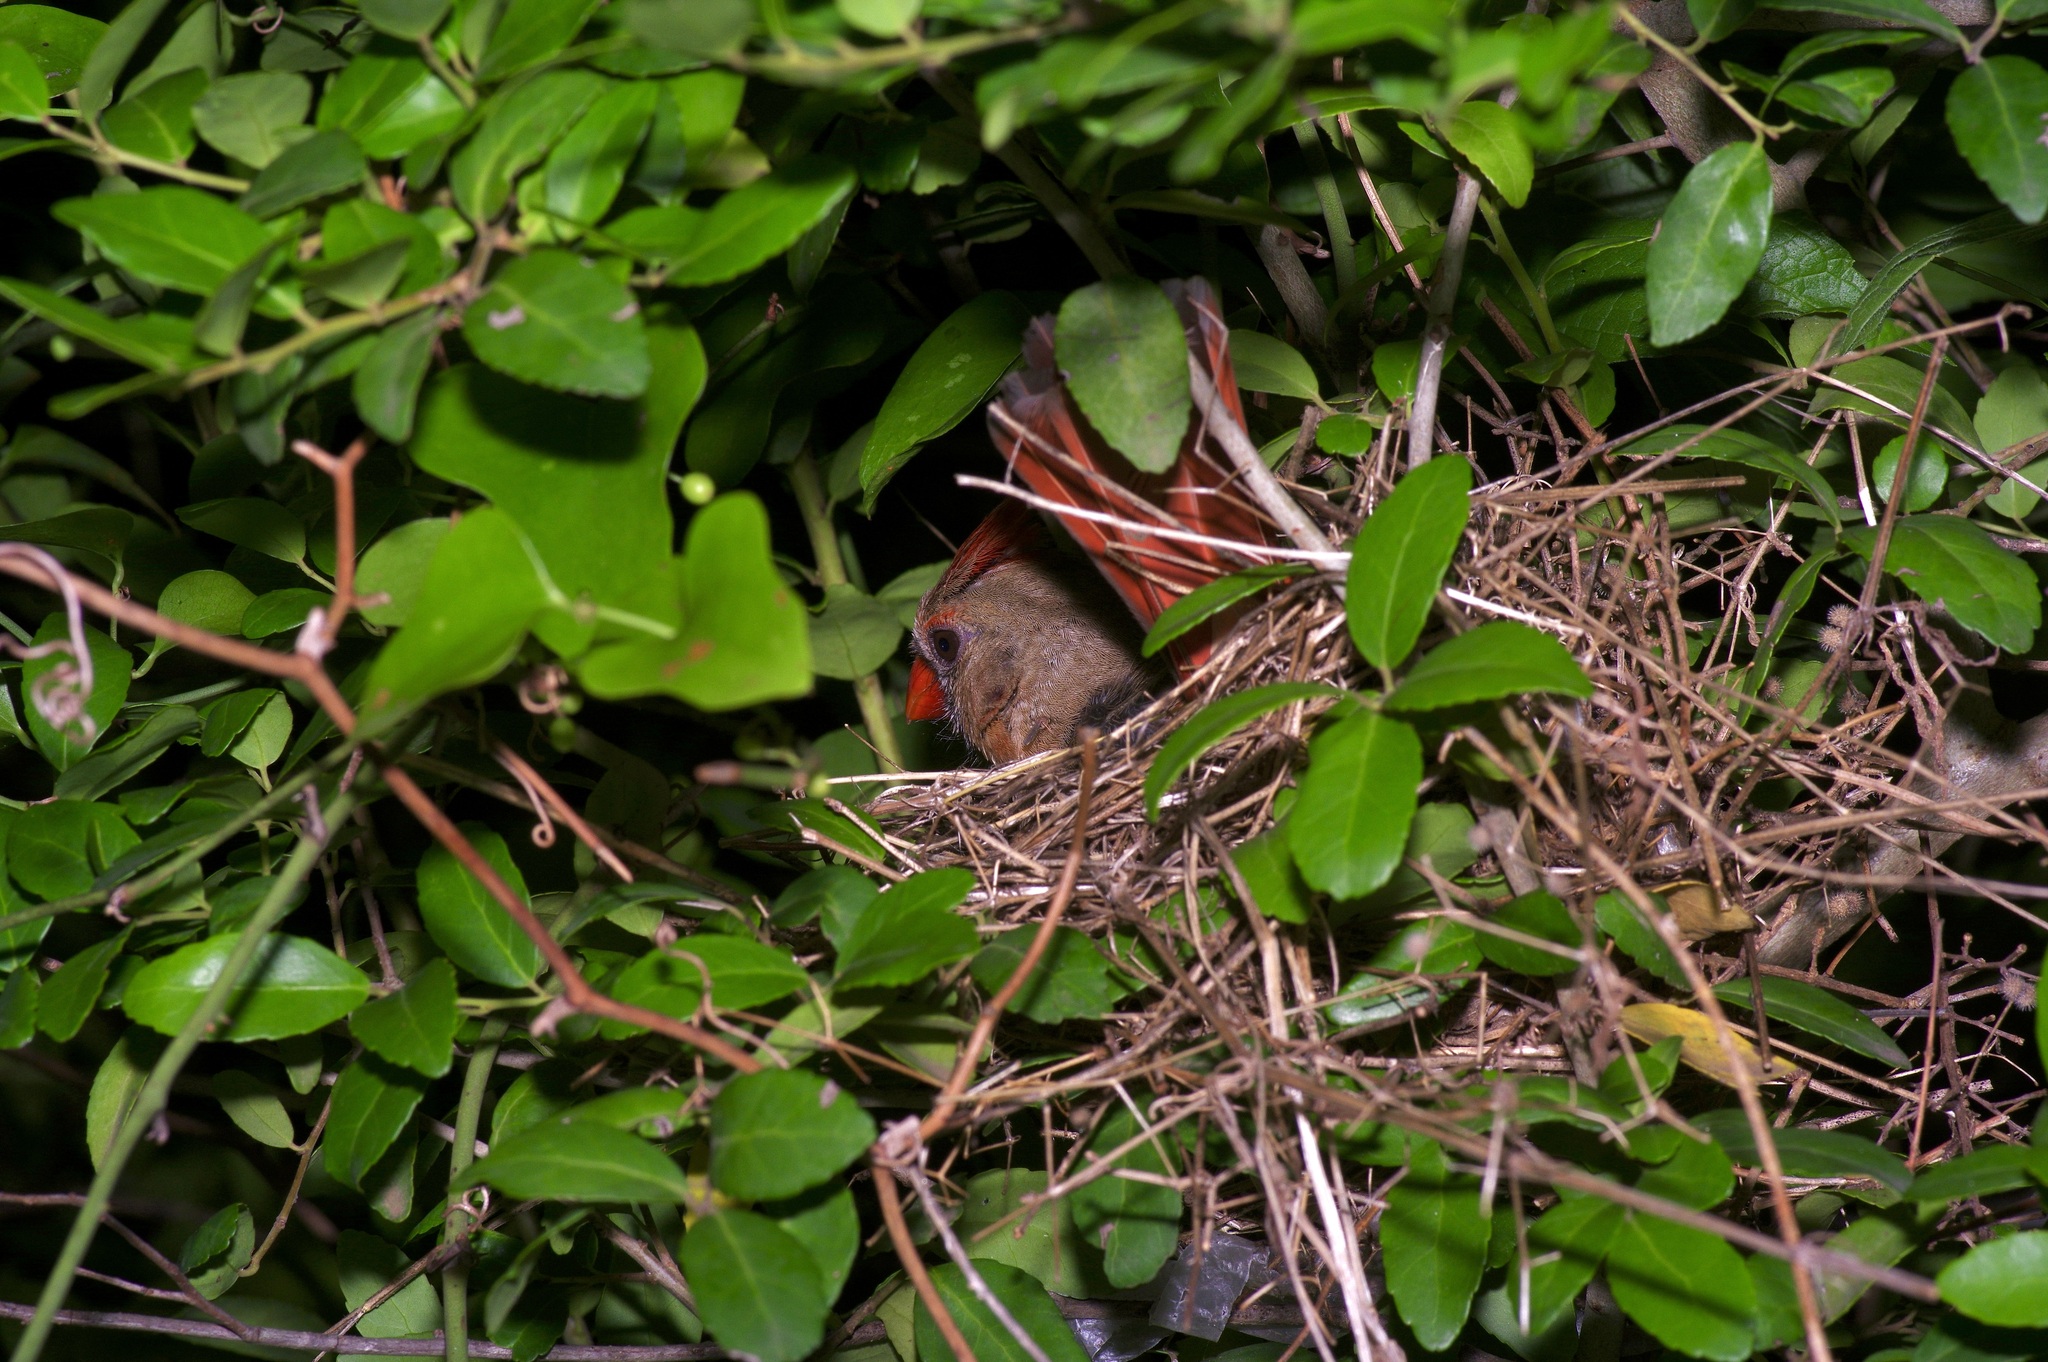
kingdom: Animalia
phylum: Chordata
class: Aves
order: Passeriformes
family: Cardinalidae
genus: Cardinalis
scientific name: Cardinalis cardinalis
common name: Northern cardinal
